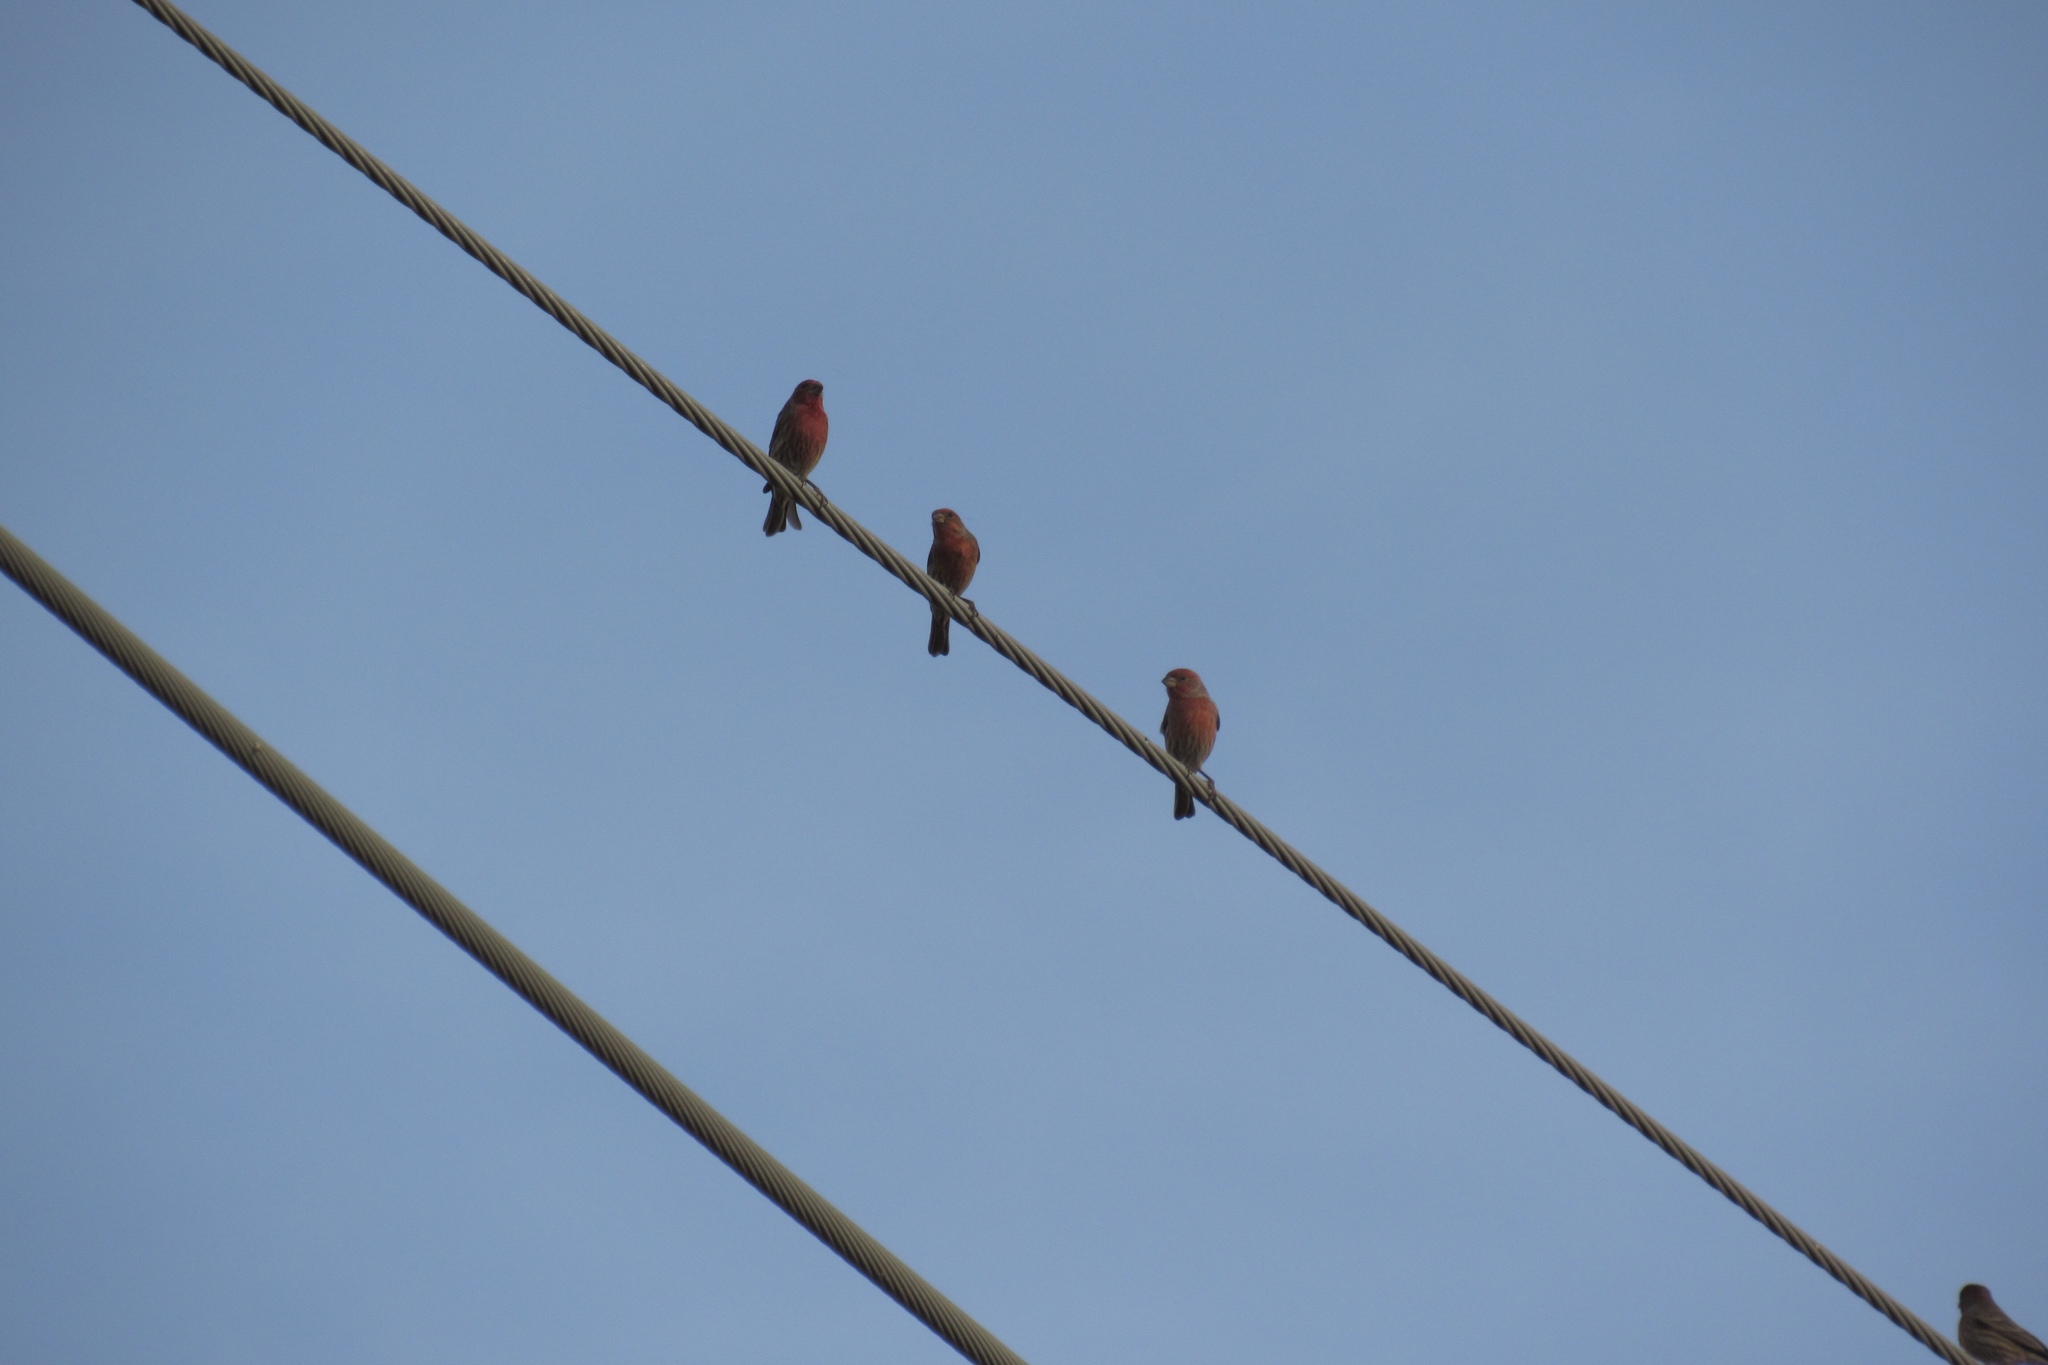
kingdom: Animalia
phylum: Chordata
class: Aves
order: Passeriformes
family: Fringillidae
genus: Haemorhous
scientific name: Haemorhous mexicanus
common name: House finch
